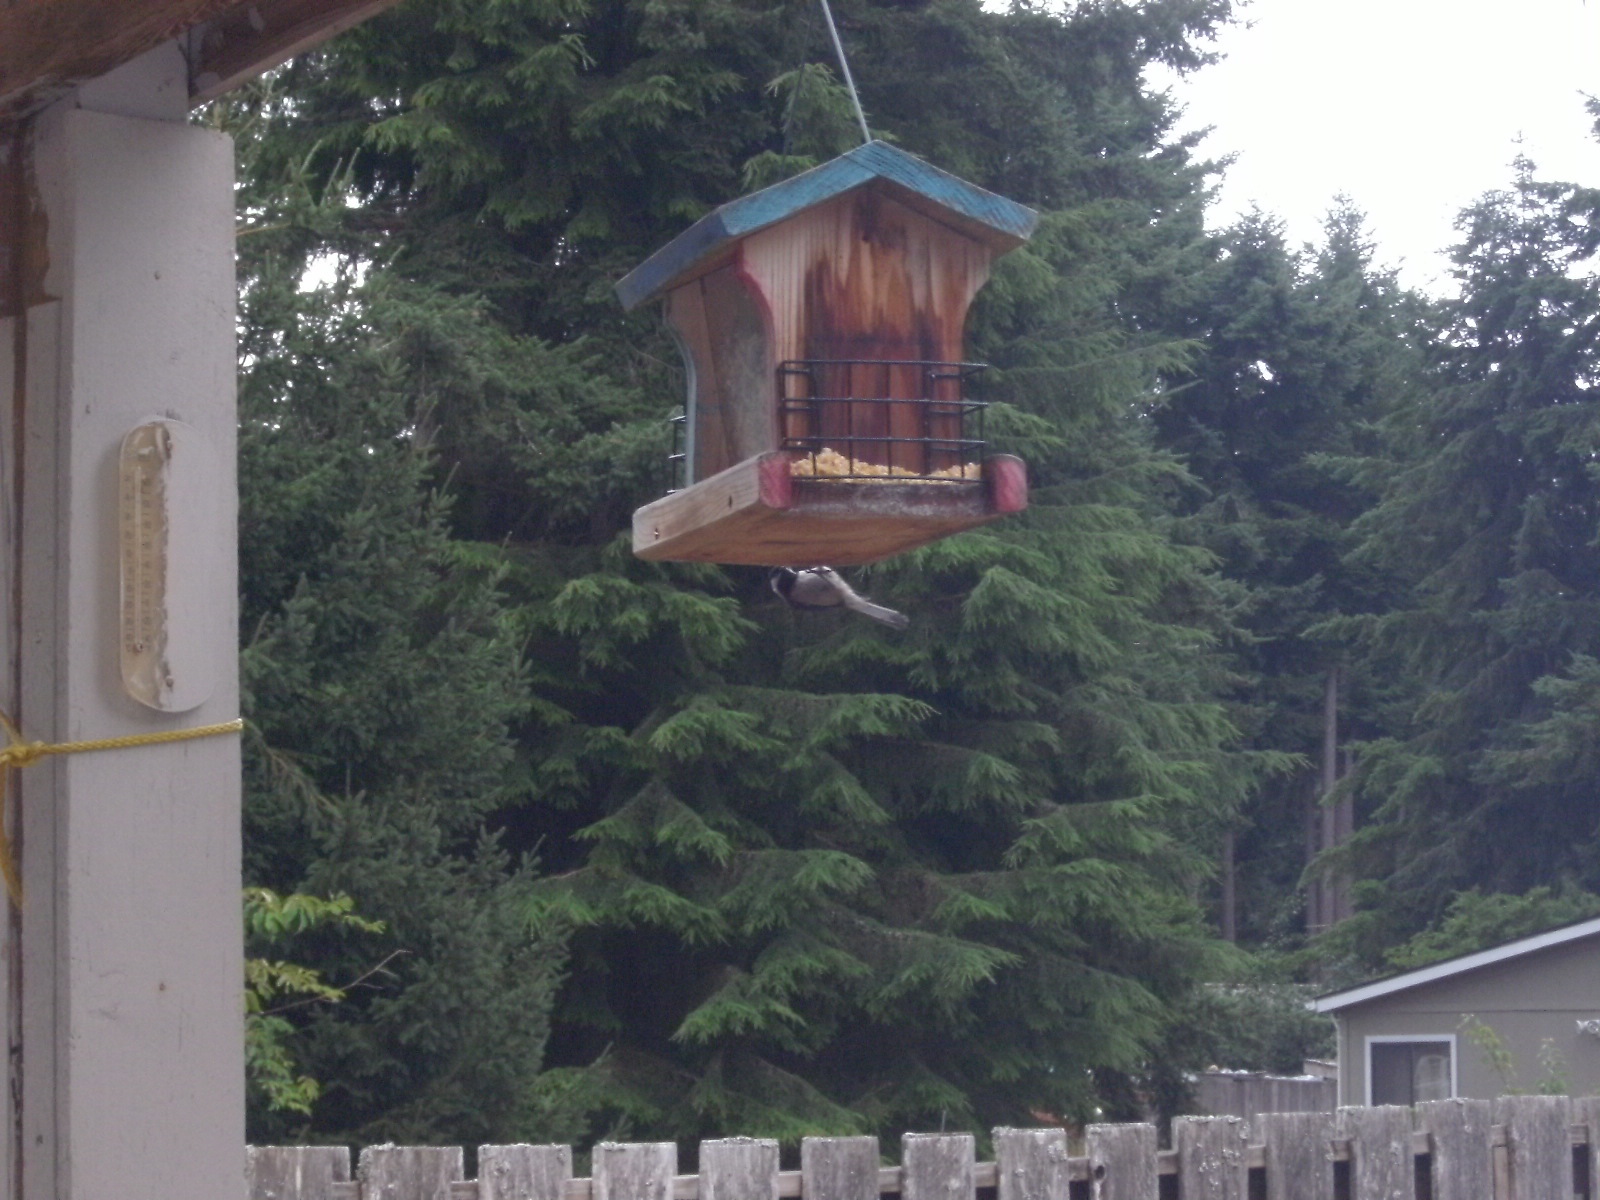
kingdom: Animalia
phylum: Chordata
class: Aves
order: Passeriformes
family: Paridae
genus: Poecile
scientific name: Poecile atricapillus
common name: Black-capped chickadee
